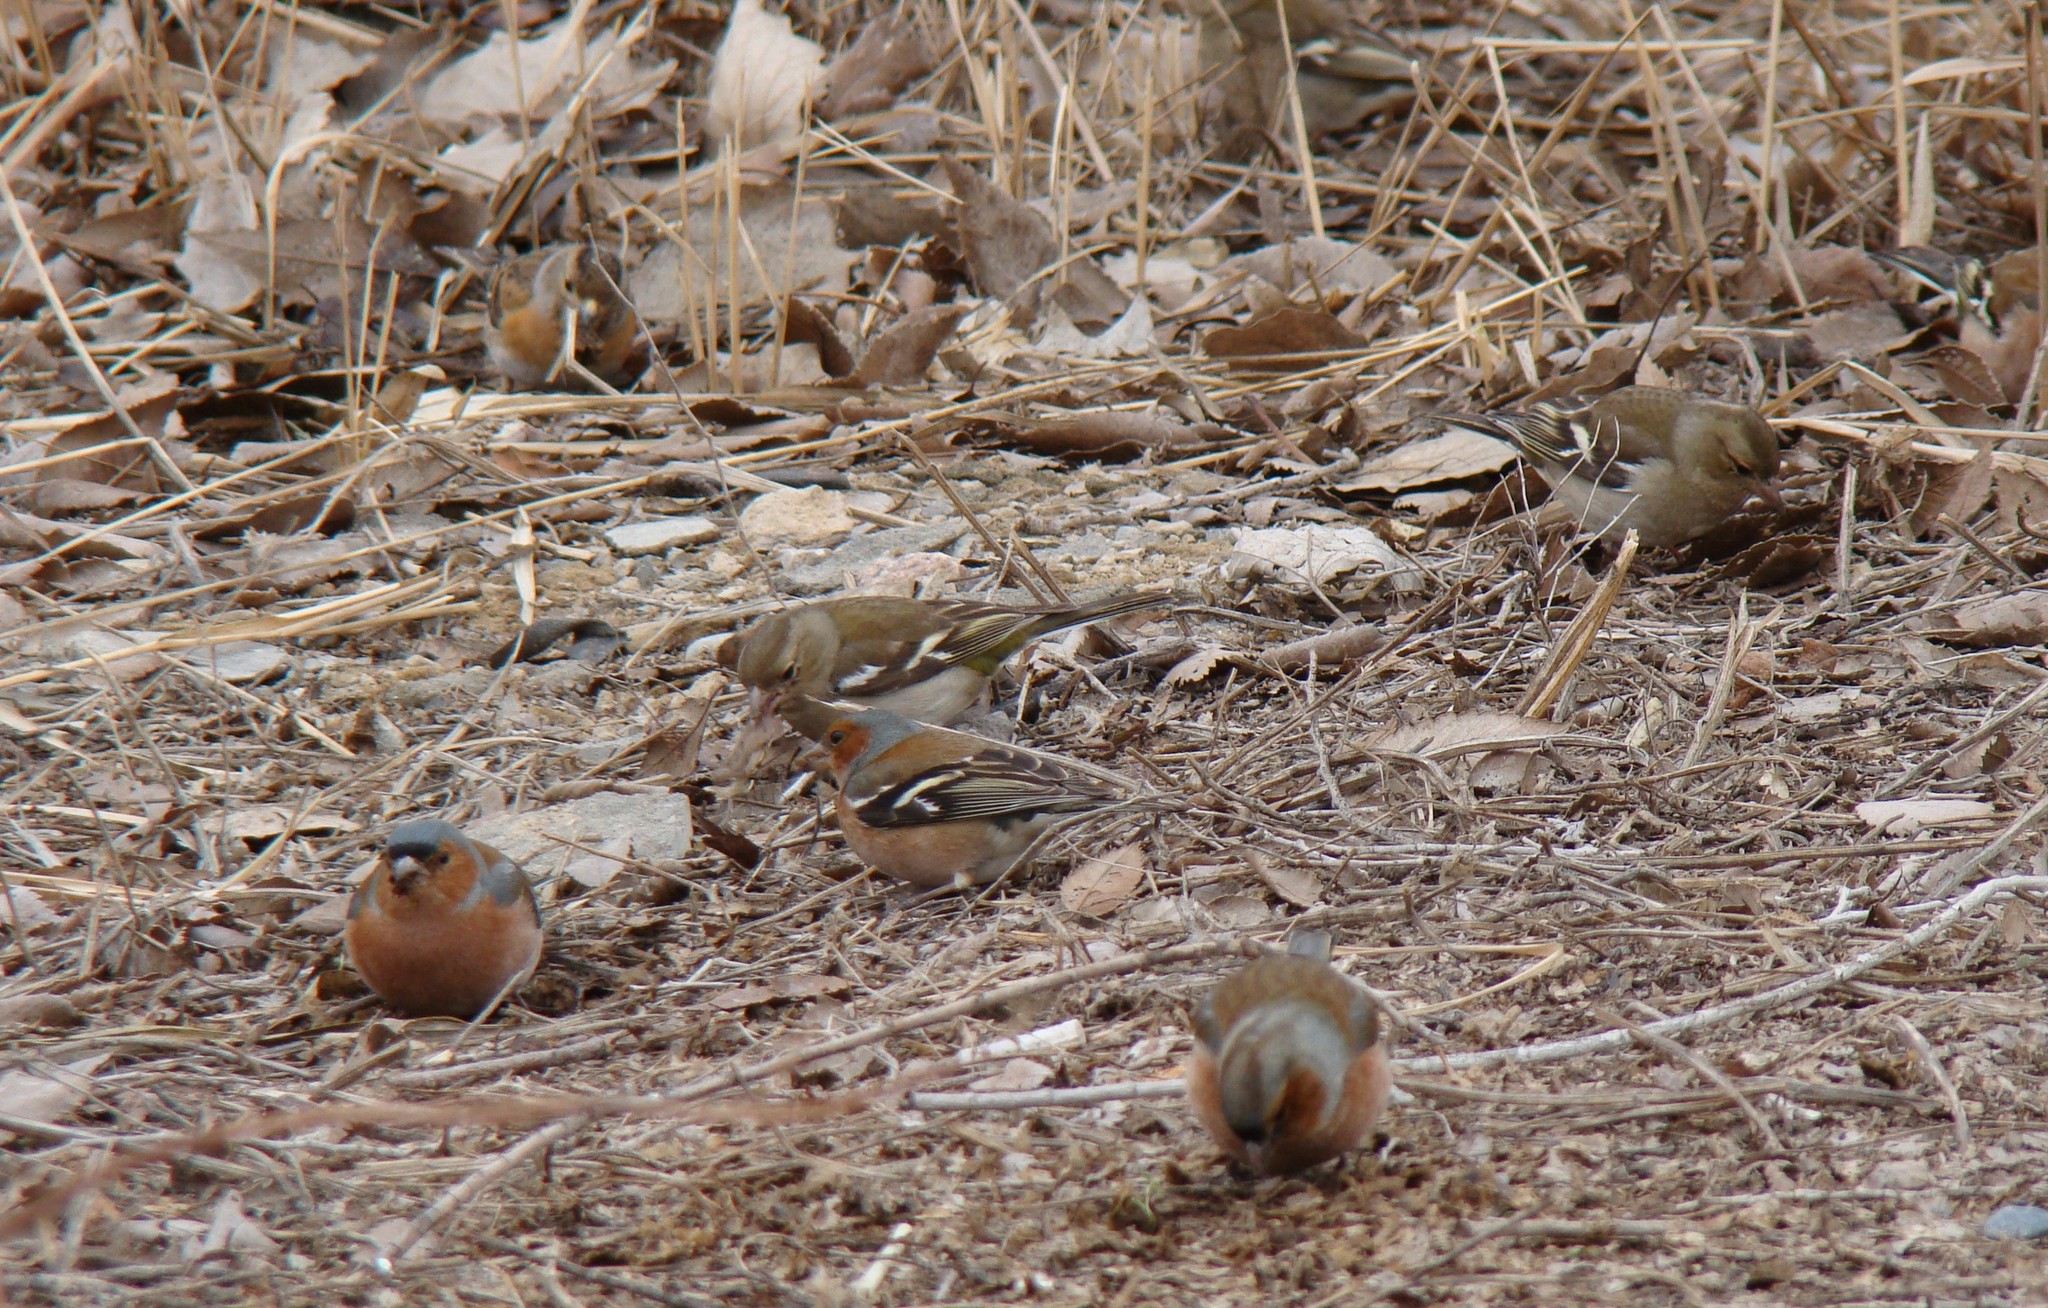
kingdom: Animalia
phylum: Chordata
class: Aves
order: Passeriformes
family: Fringillidae
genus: Fringilla
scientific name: Fringilla coelebs
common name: Common chaffinch
